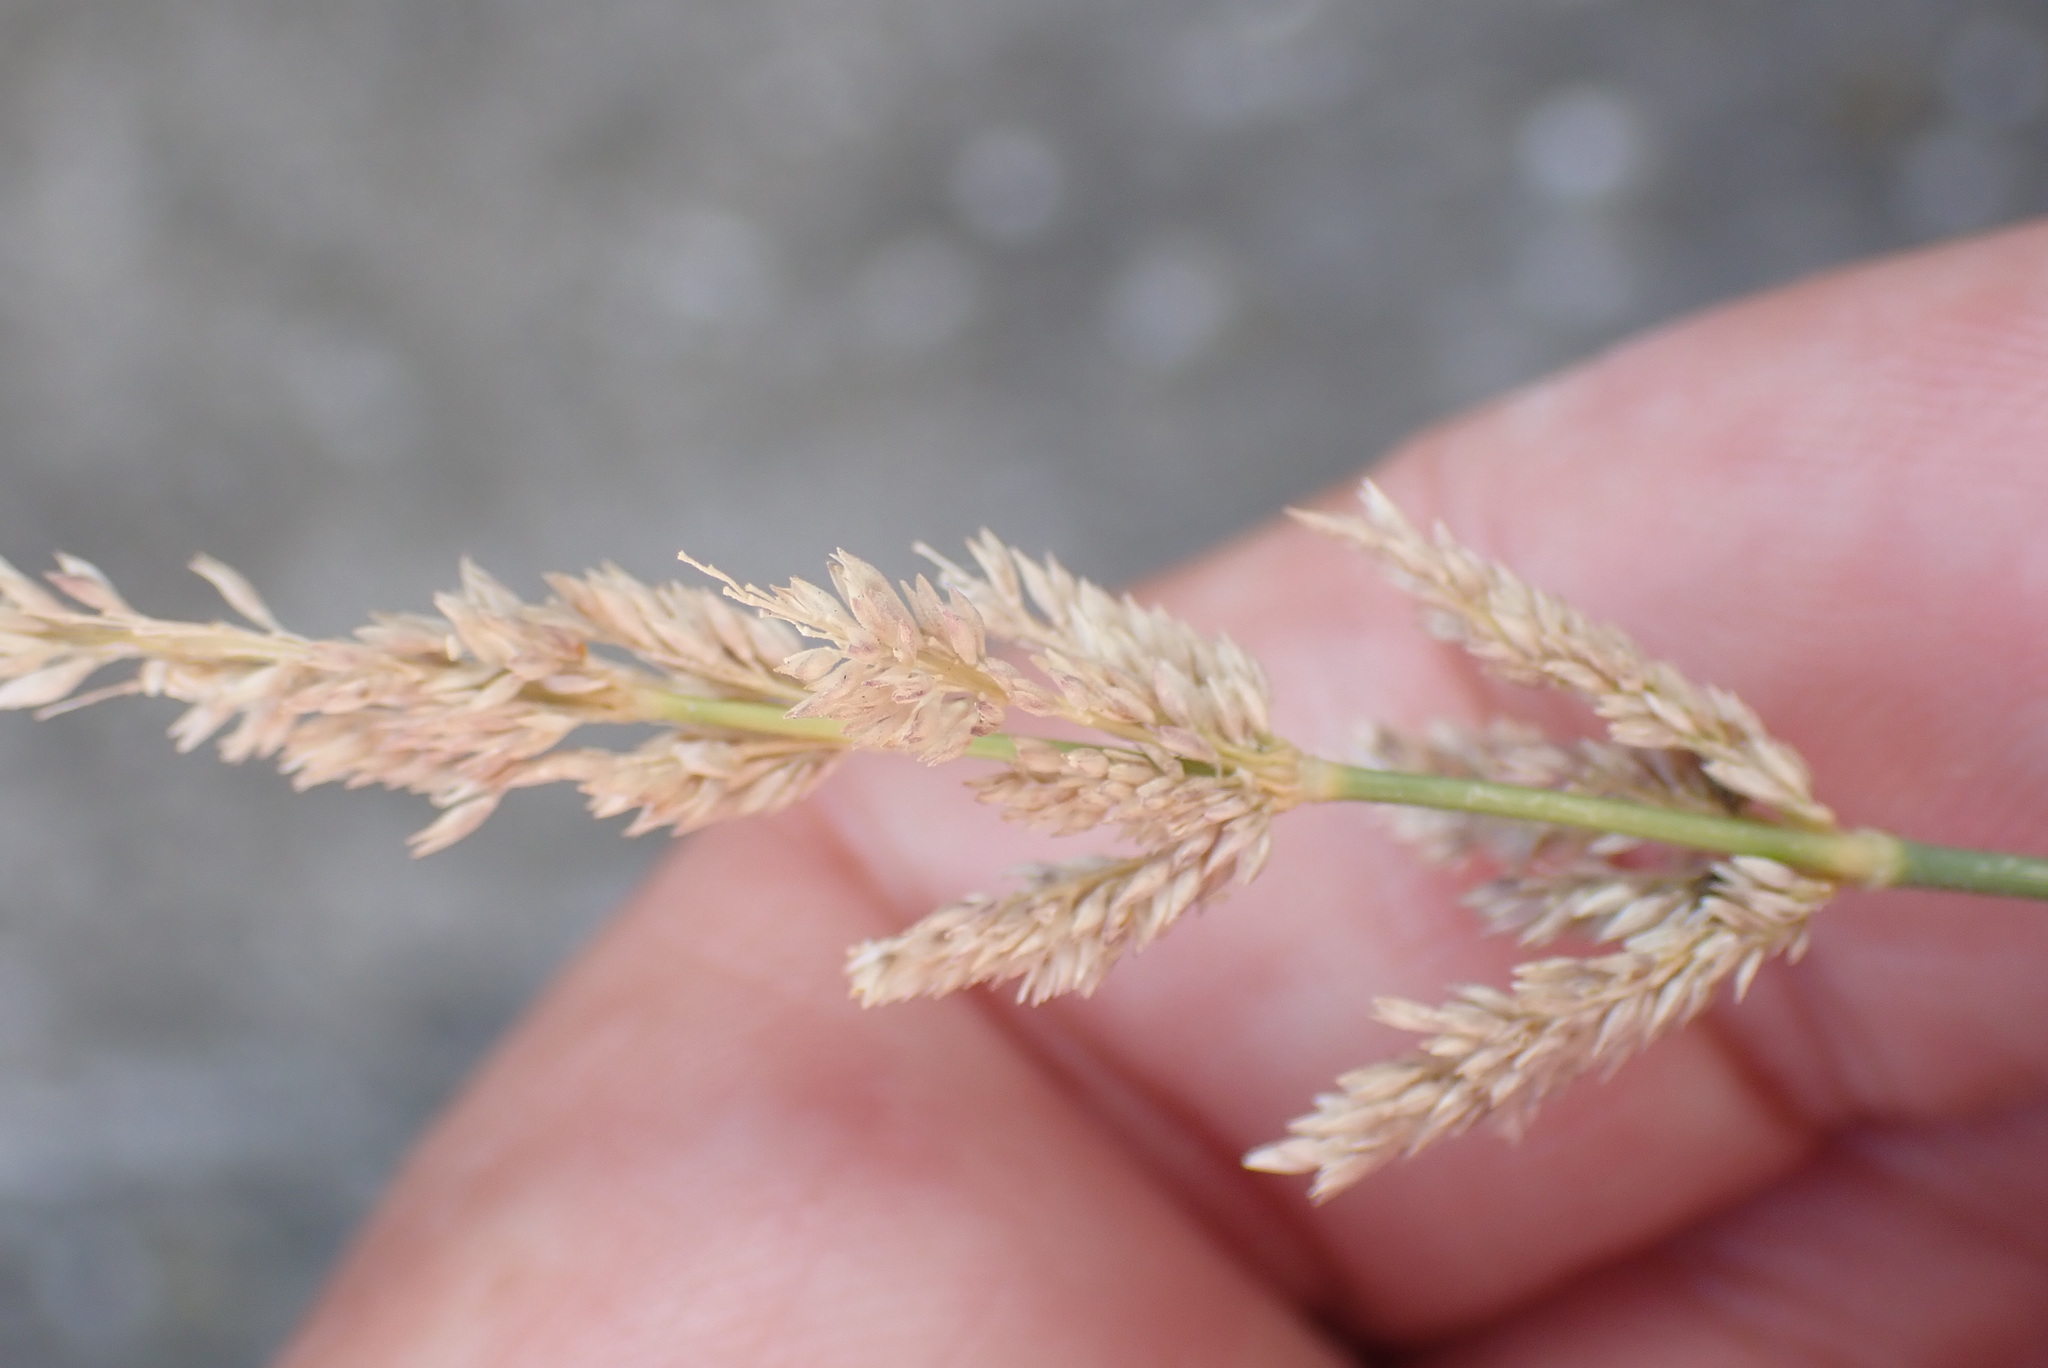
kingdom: Plantae
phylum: Tracheophyta
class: Liliopsida
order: Poales
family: Poaceae
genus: Polypogon
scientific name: Polypogon viridis
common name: Water bent
